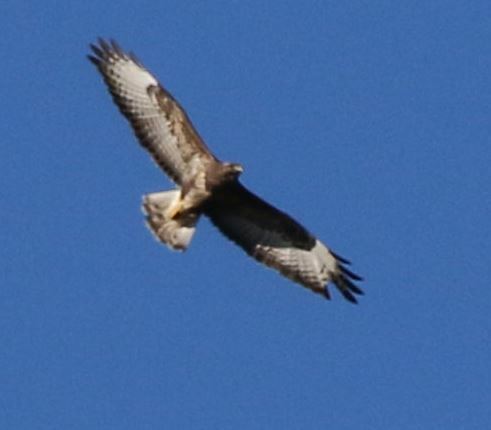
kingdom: Animalia
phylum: Chordata
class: Aves
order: Accipitriformes
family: Accipitridae
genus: Buteo
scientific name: Buteo buteo
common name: Common buzzard
